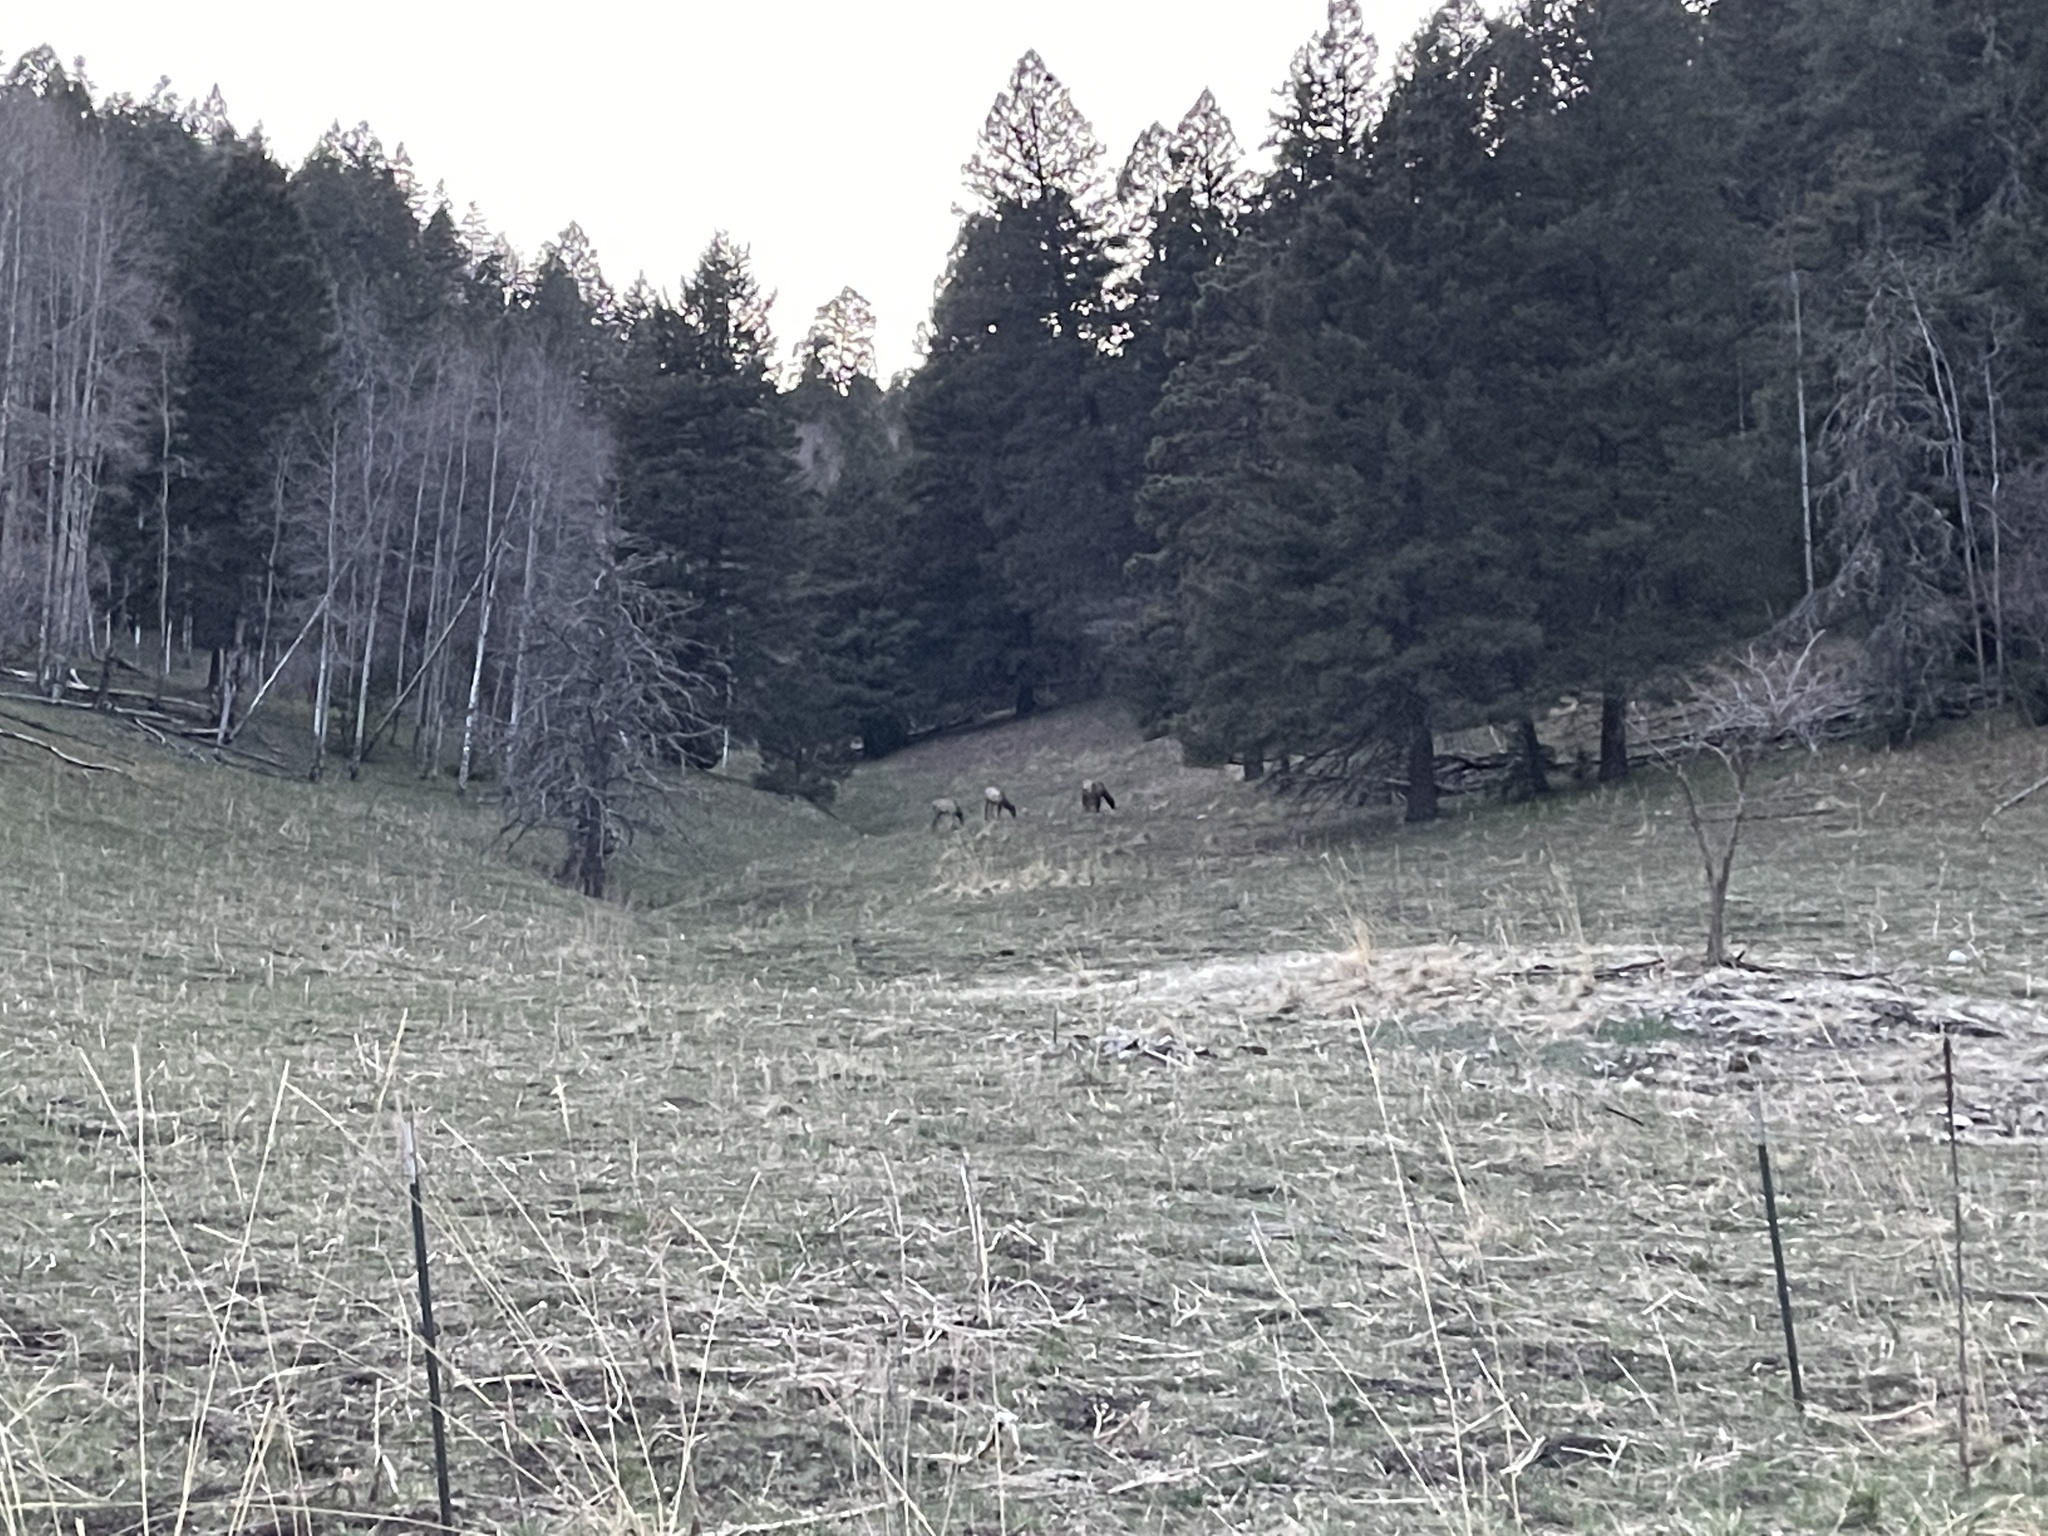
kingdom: Animalia
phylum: Chordata
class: Mammalia
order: Artiodactyla
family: Cervidae
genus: Cervus
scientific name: Cervus elaphus
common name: Red deer
